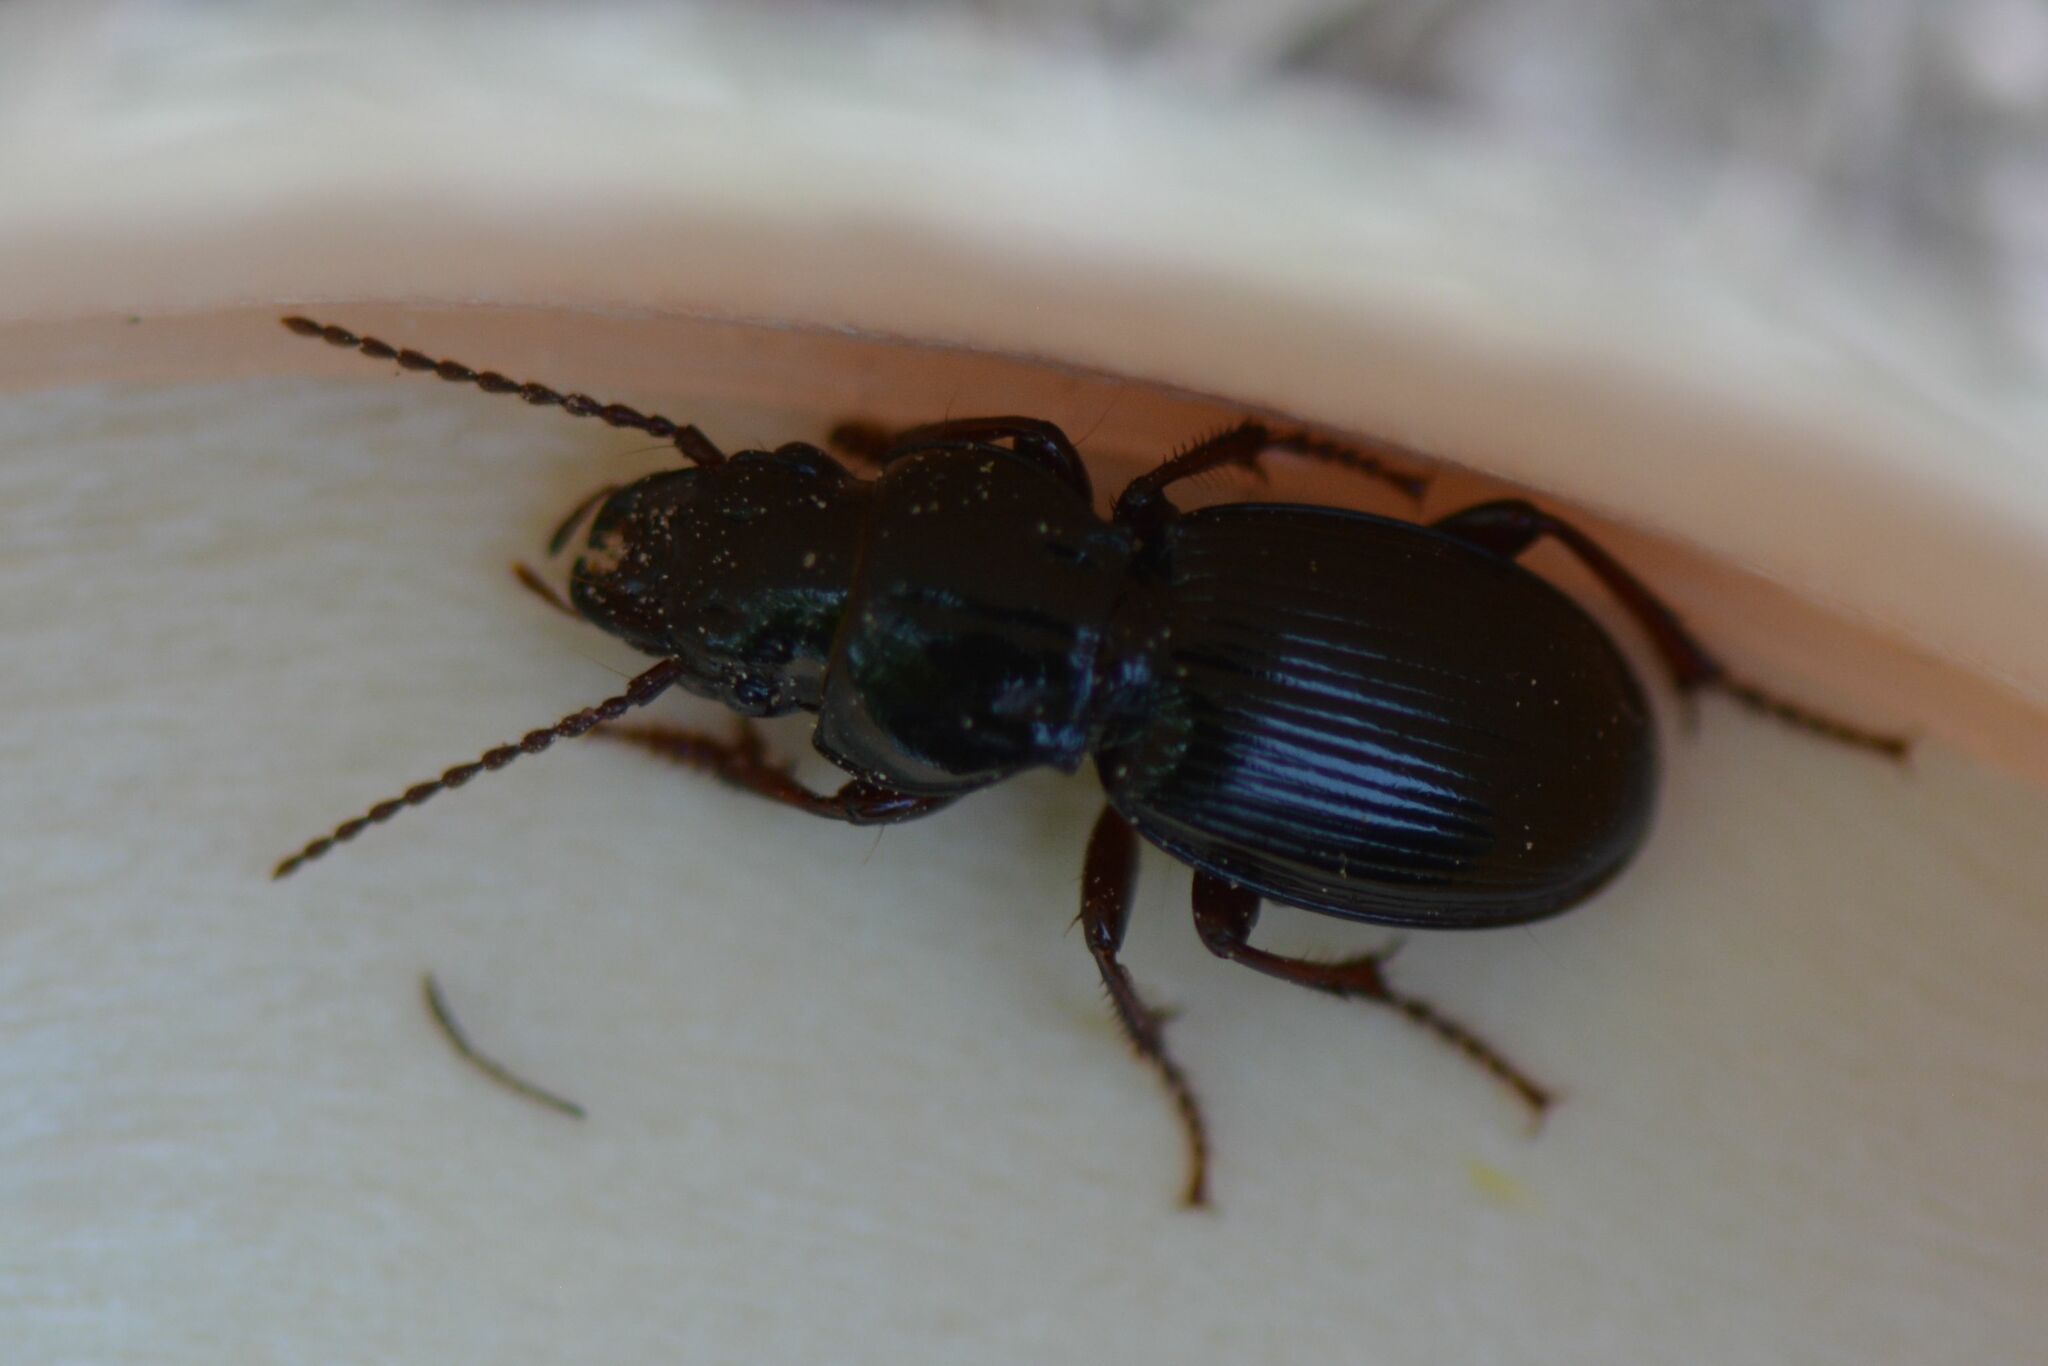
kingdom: Animalia
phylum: Arthropoda
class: Insecta
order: Coleoptera
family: Carabidae
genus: Molops
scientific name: Molops piceus
